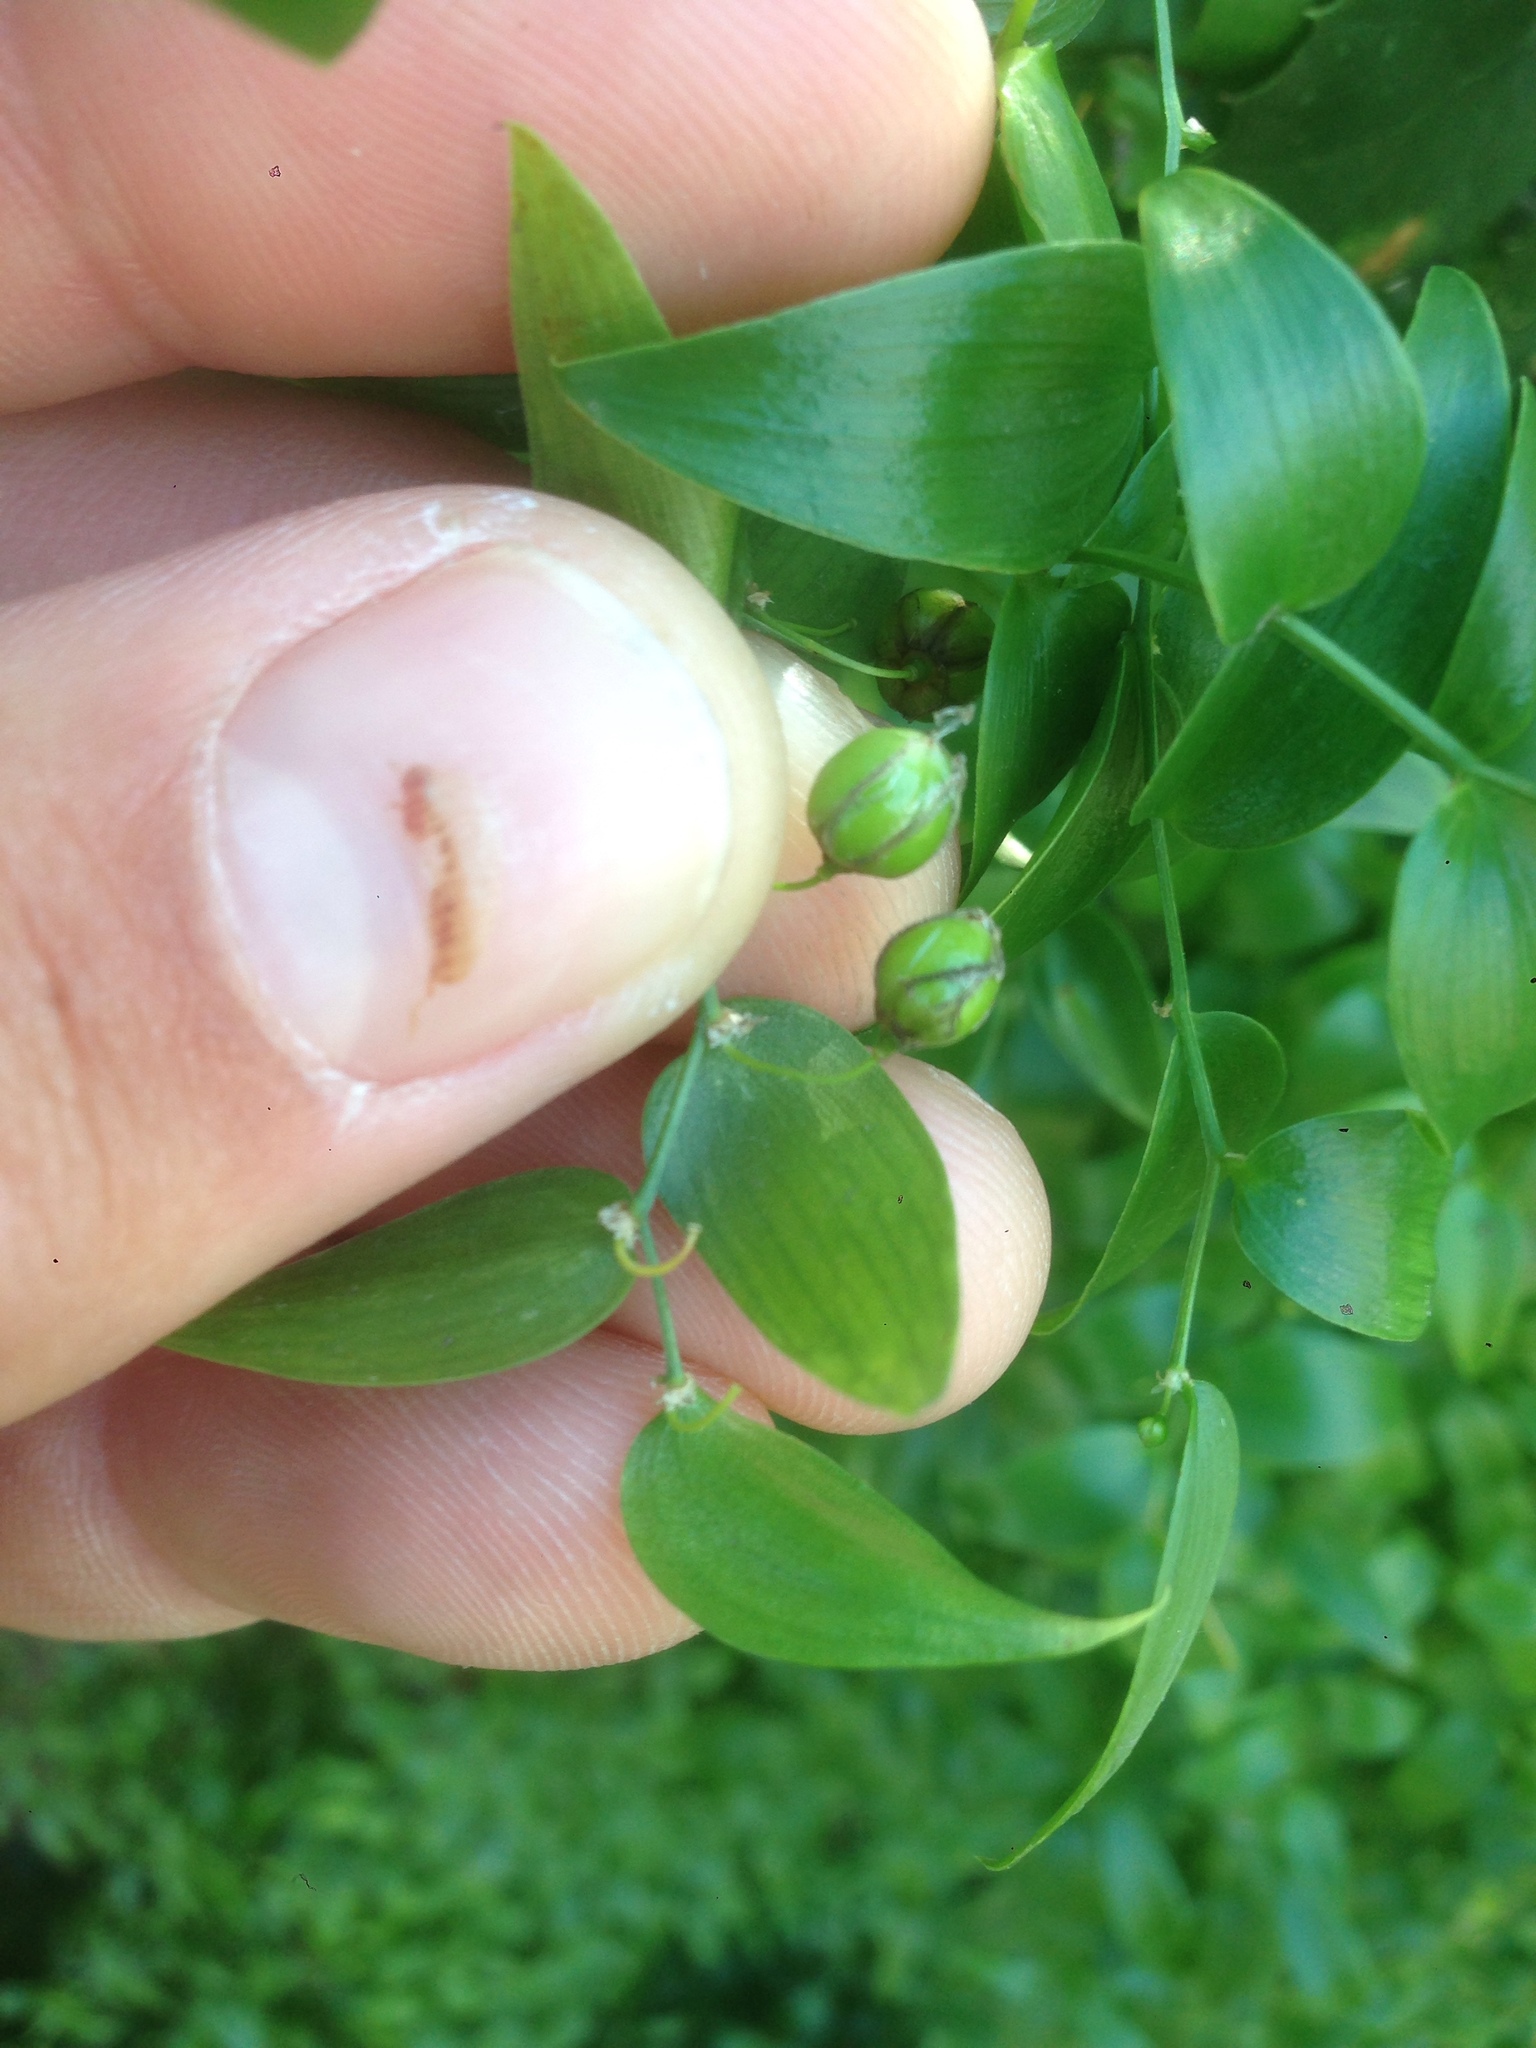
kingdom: Plantae
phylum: Tracheophyta
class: Liliopsida
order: Asparagales
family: Asparagaceae
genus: Asparagus
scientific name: Asparagus asparagoides
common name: African asparagus fern
